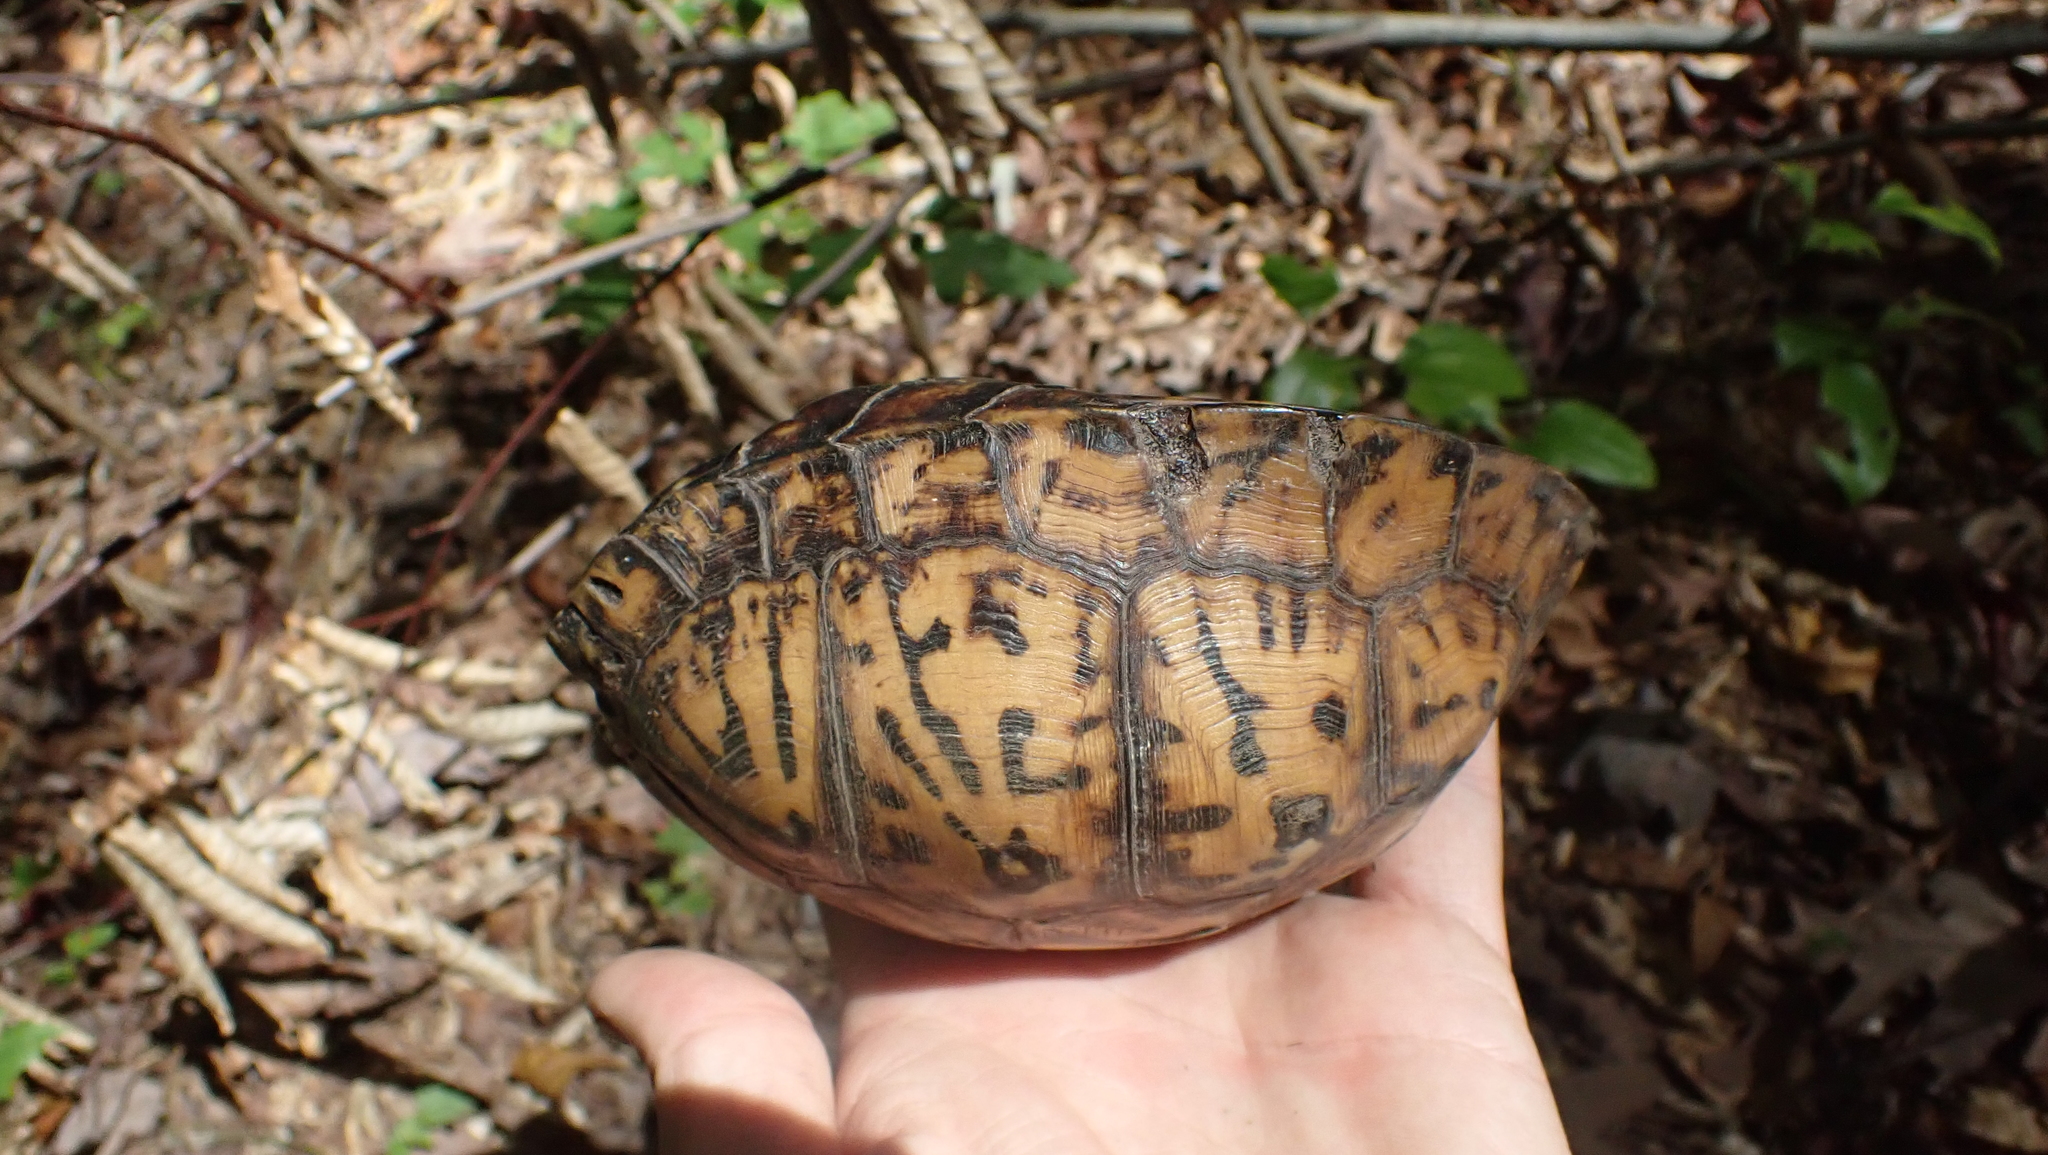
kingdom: Animalia
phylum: Chordata
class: Testudines
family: Emydidae
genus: Terrapene
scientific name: Terrapene carolina
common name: Common box turtle
